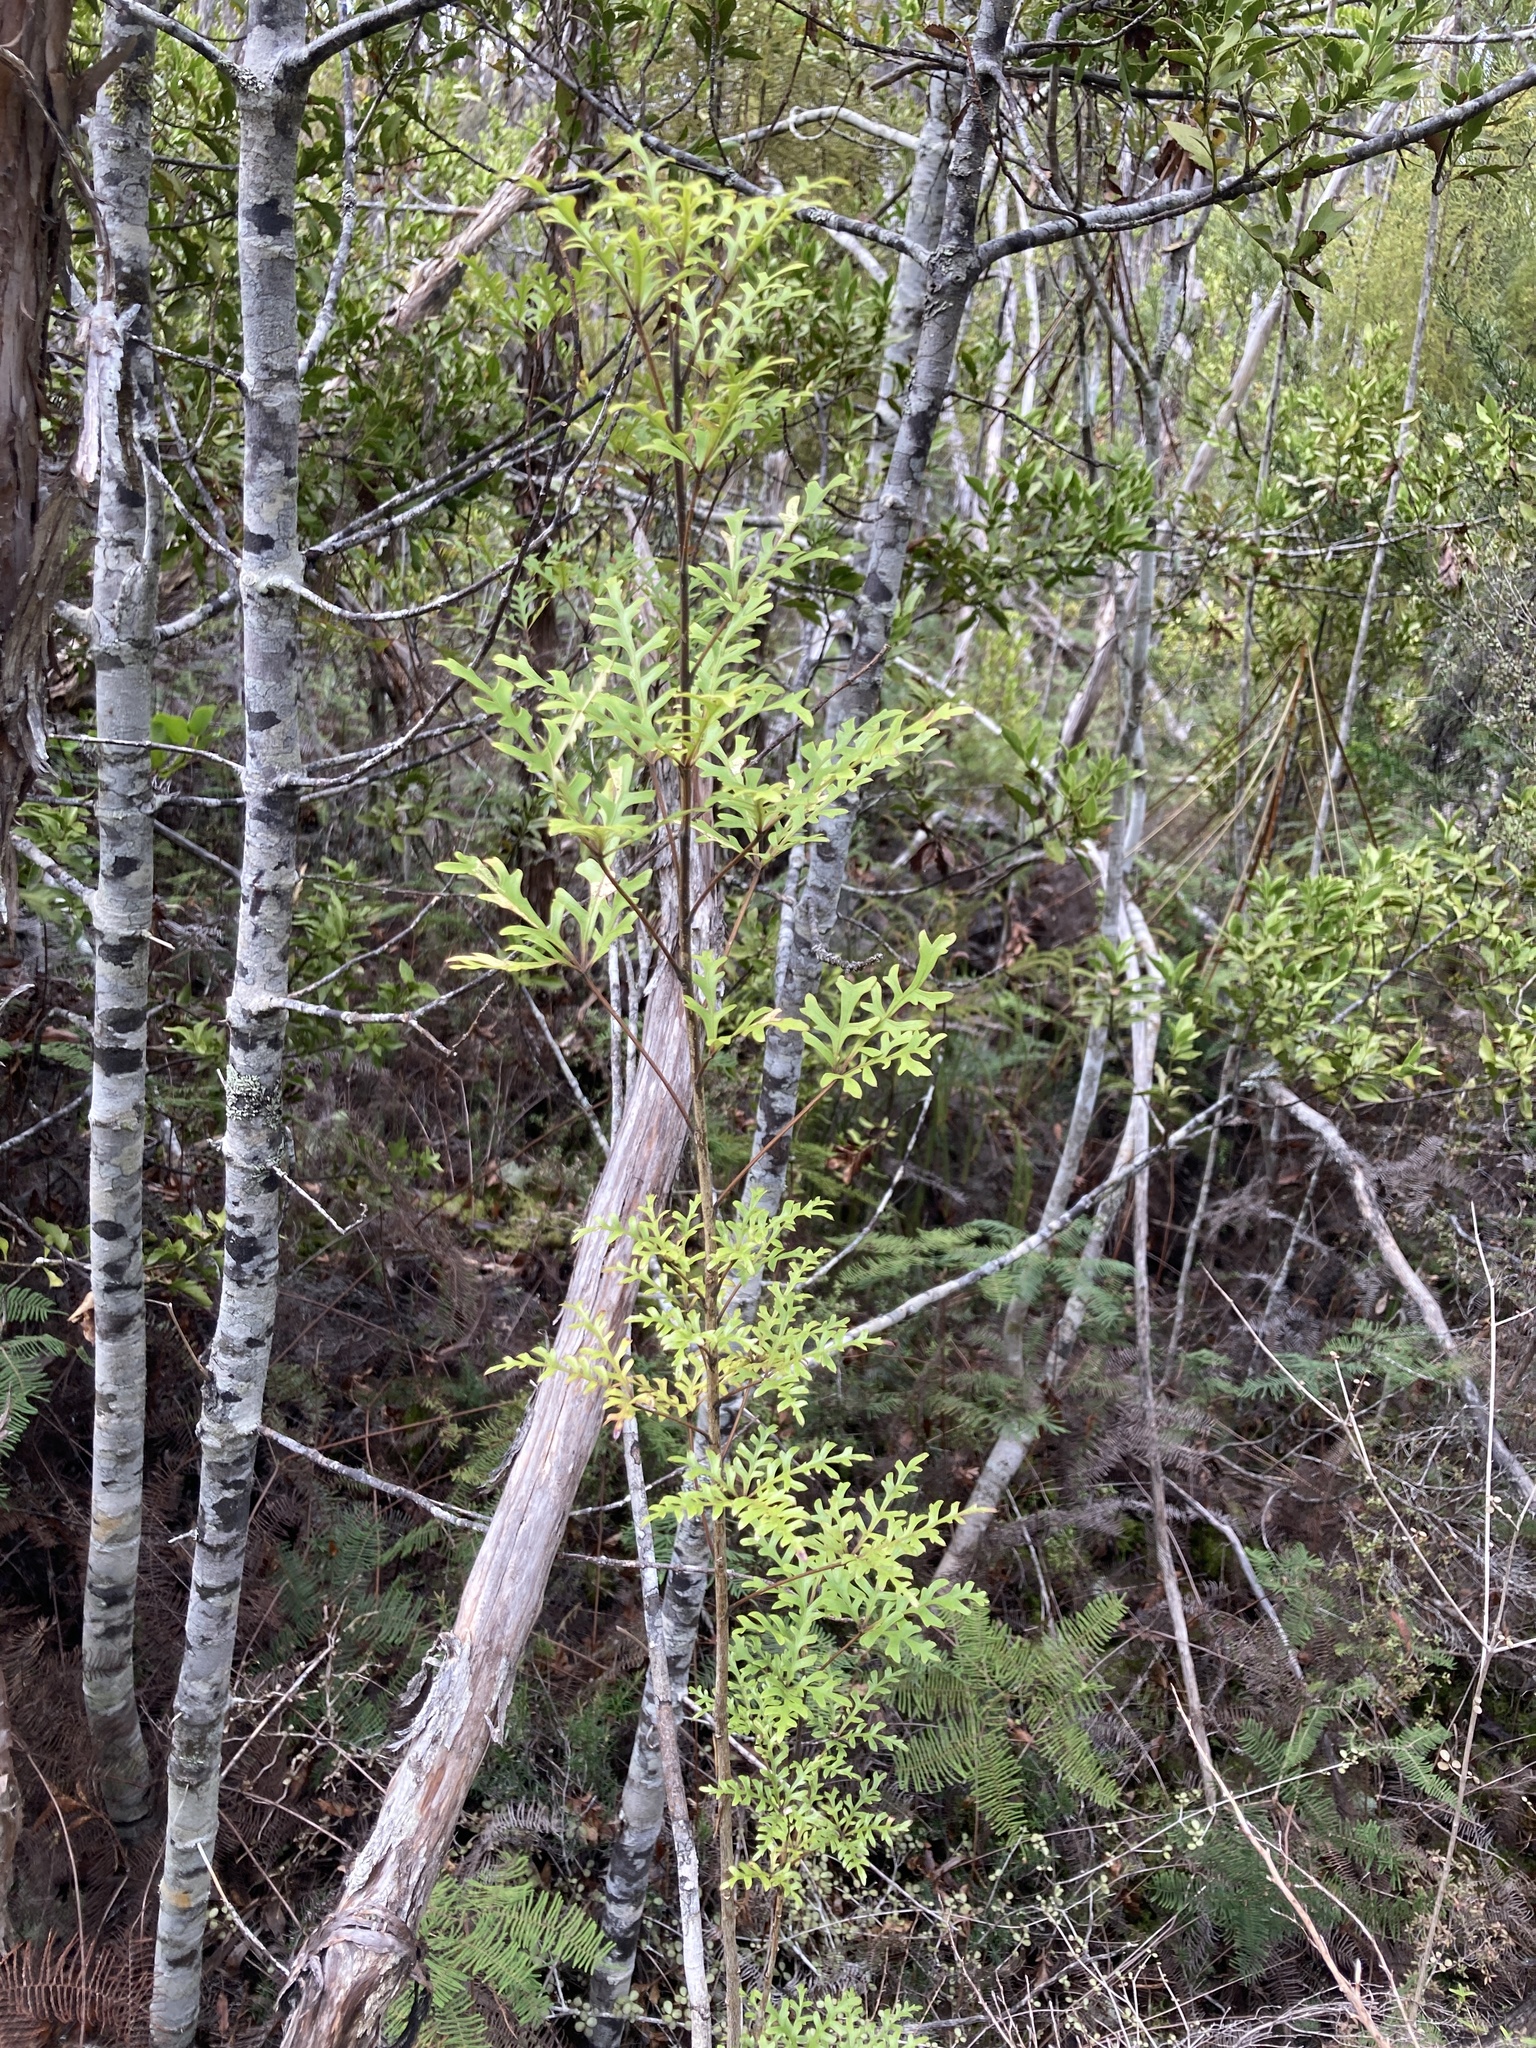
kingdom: Plantae
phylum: Tracheophyta
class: Magnoliopsida
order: Apiales
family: Araliaceae
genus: Raukaua
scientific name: Raukaua simplex
